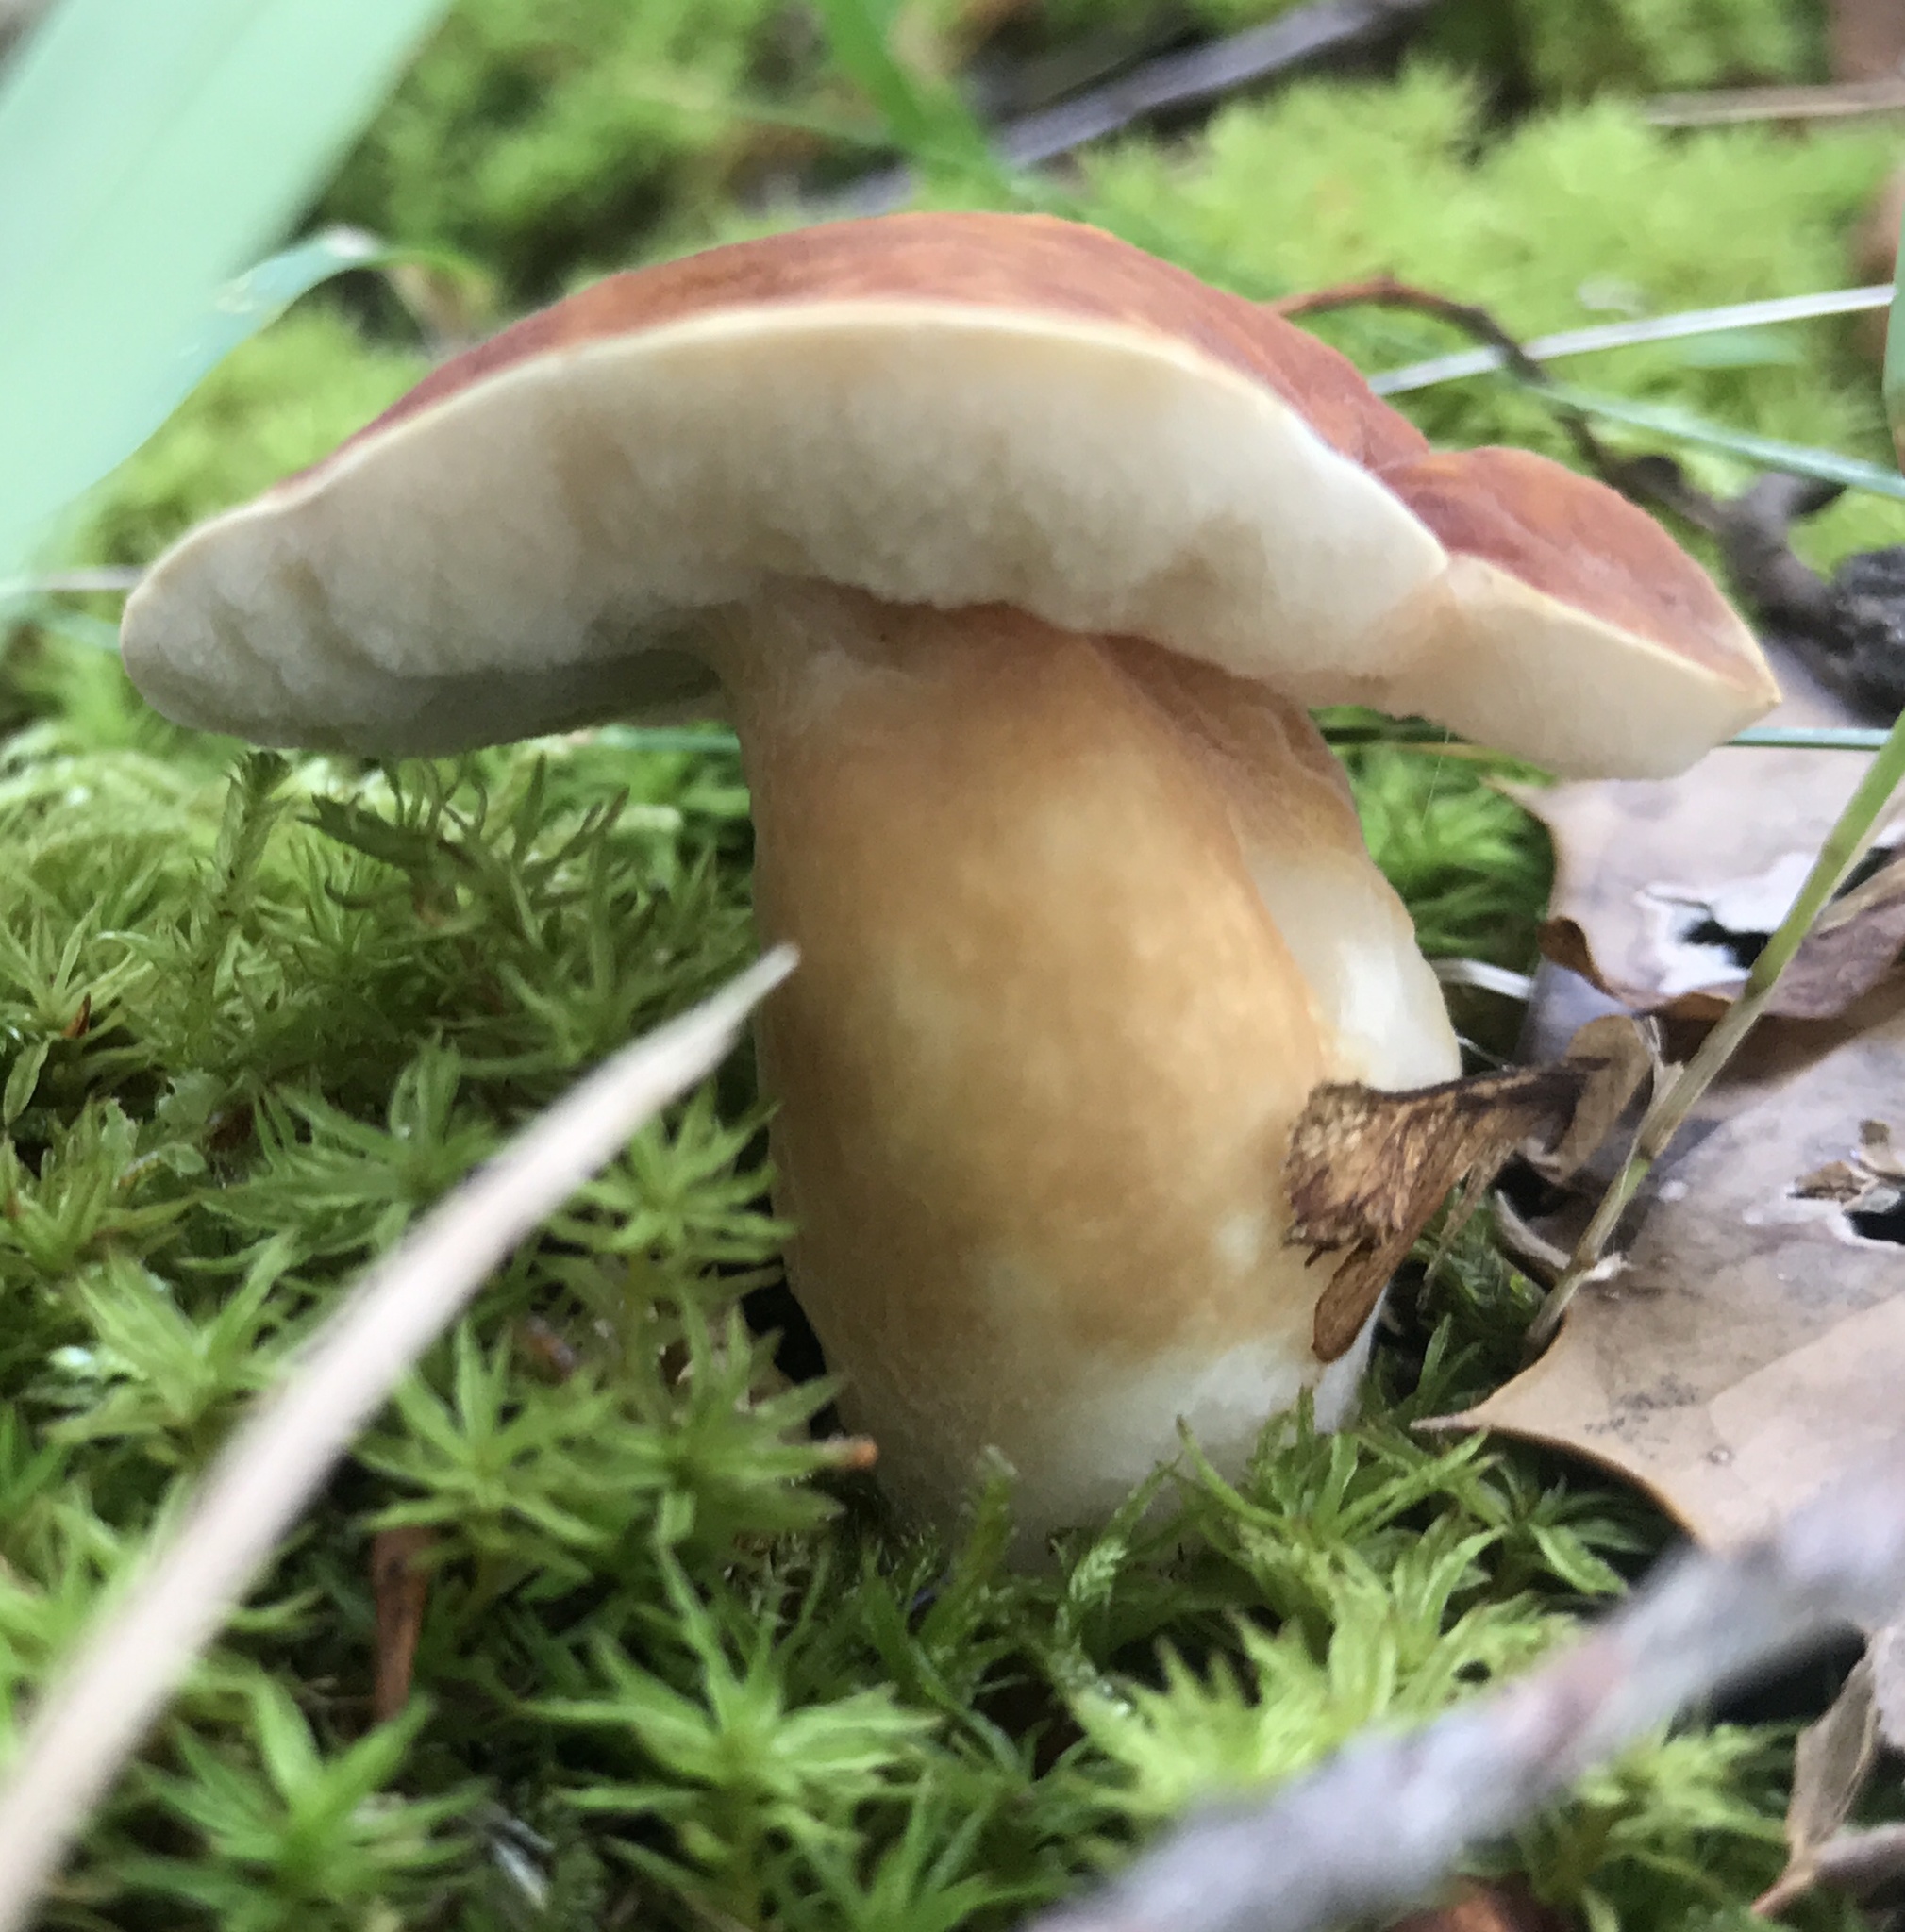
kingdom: Fungi
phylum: Basidiomycota
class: Agaricomycetes
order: Boletales
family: Boletaceae
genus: Xanthoconium
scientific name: Xanthoconium purpureum
